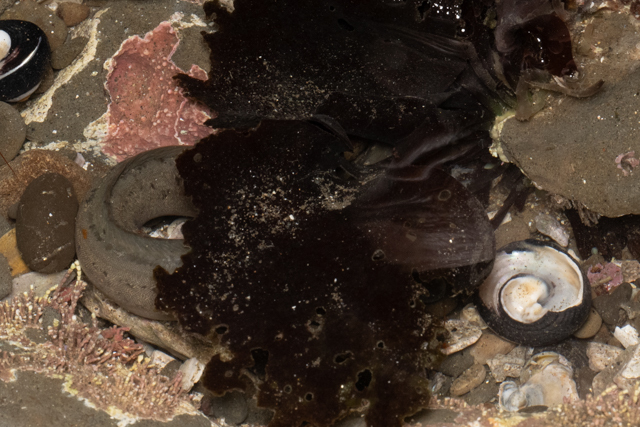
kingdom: Animalia
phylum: Chordata
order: Perciformes
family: Stichaeidae
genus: Cebidichthys
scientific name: Cebidichthys violaceus
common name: Monkeyface prickleback
